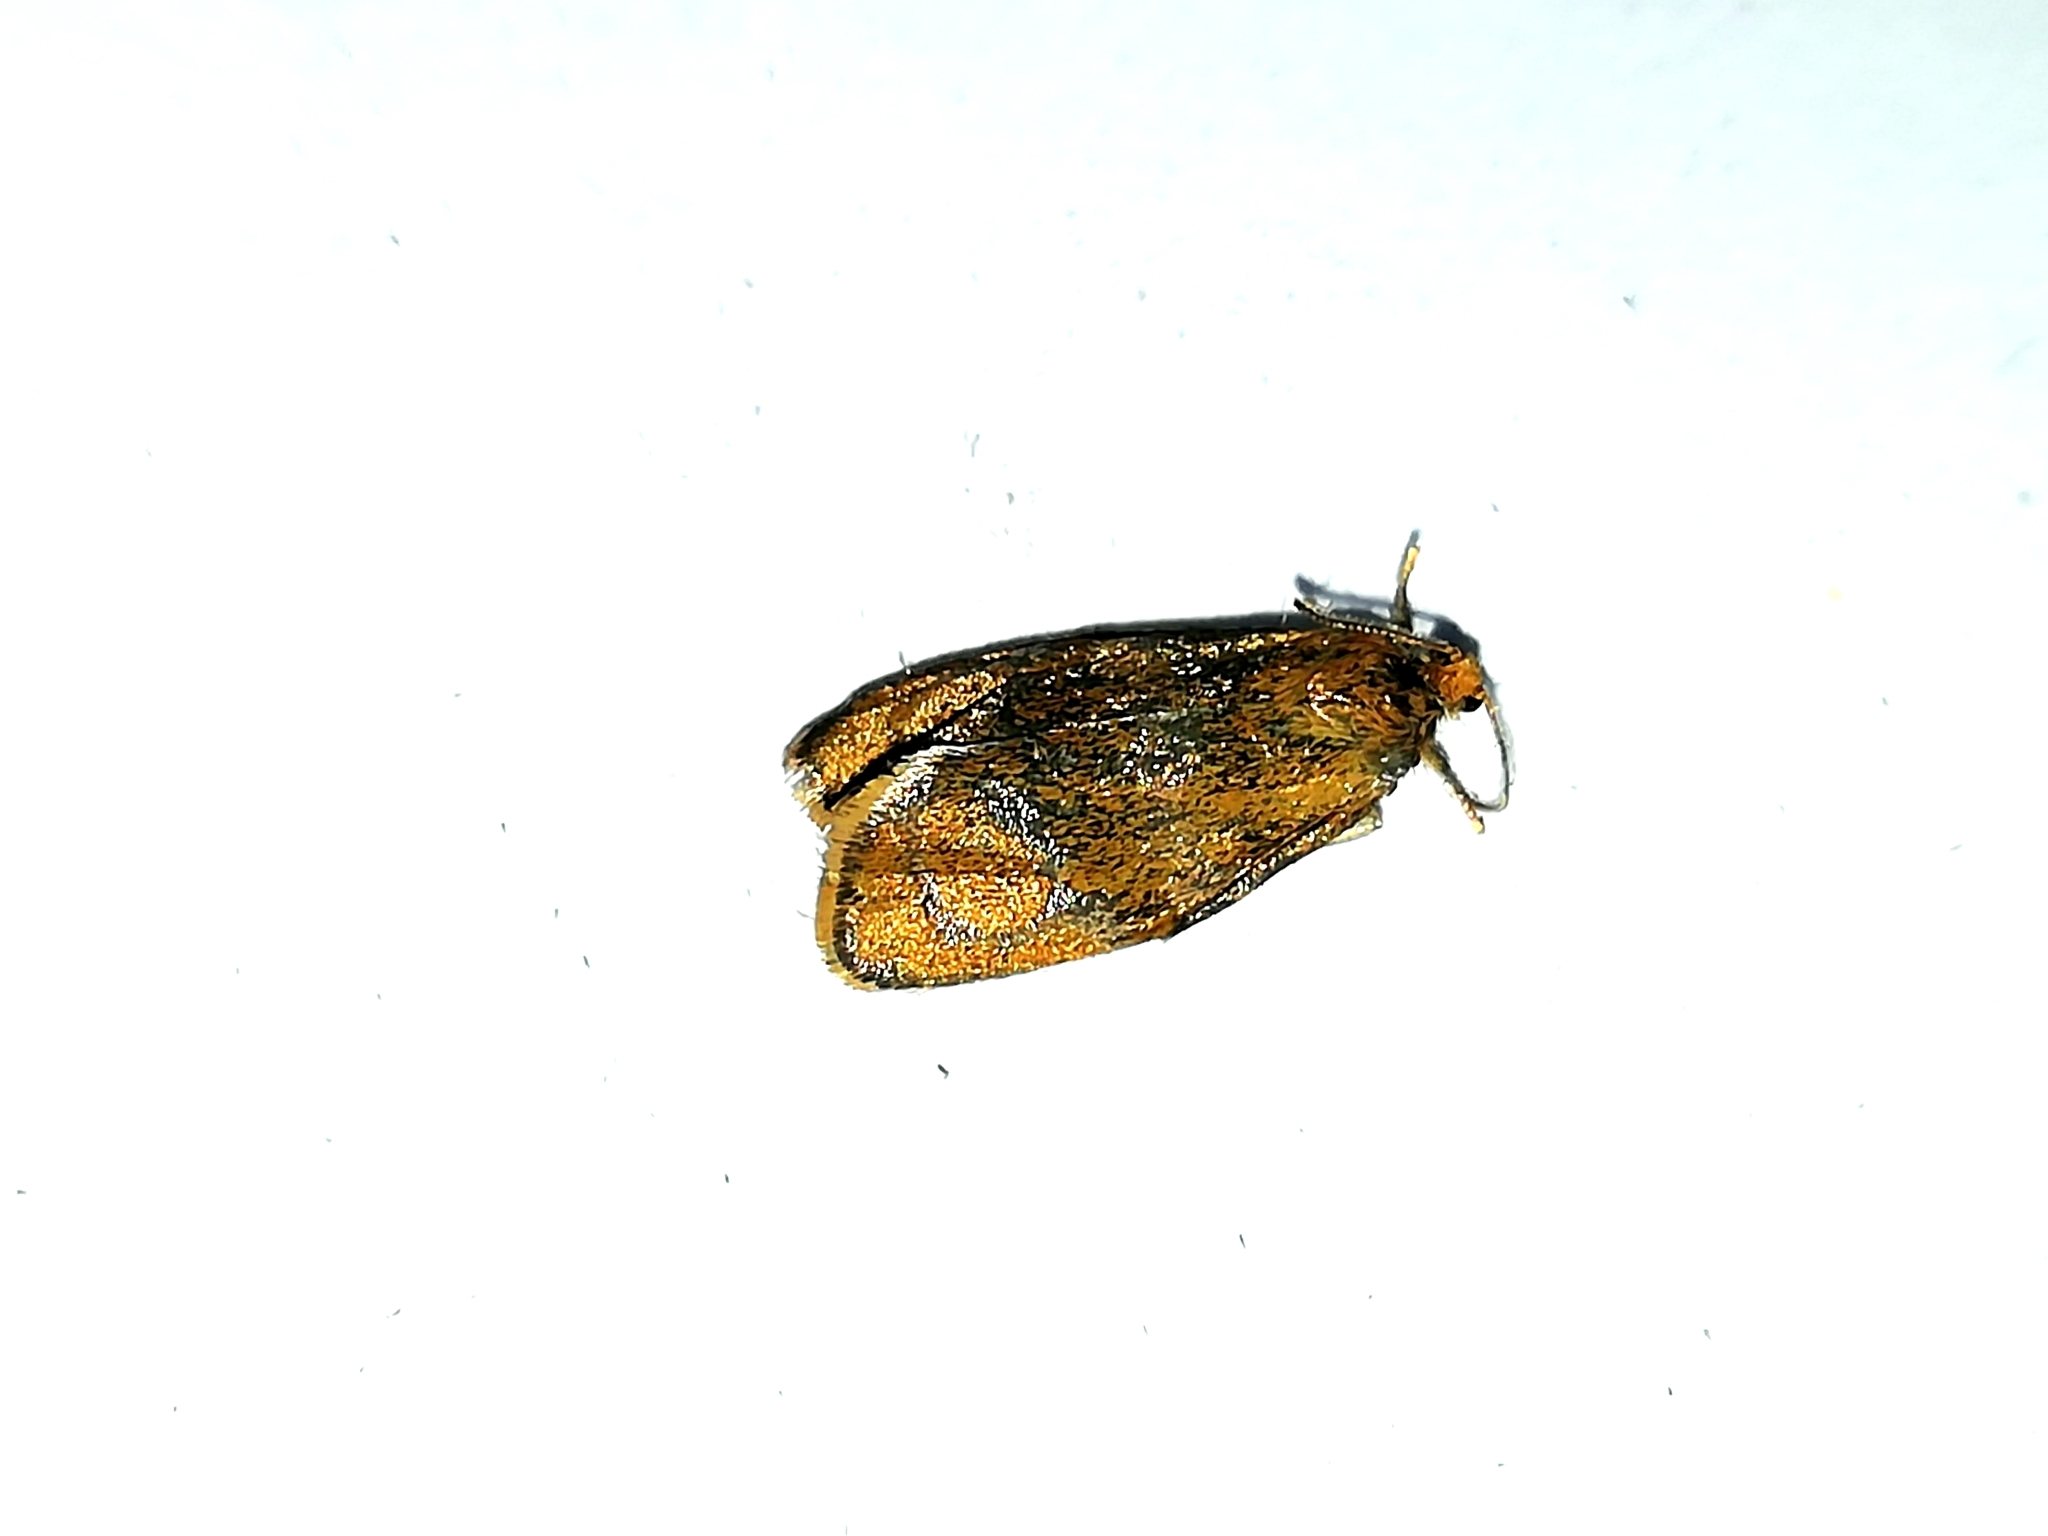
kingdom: Animalia
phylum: Arthropoda
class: Insecta
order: Lepidoptera
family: Tortricidae
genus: Ptycholoma
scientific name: Ptycholoma lecheana
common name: Leches twist moth
